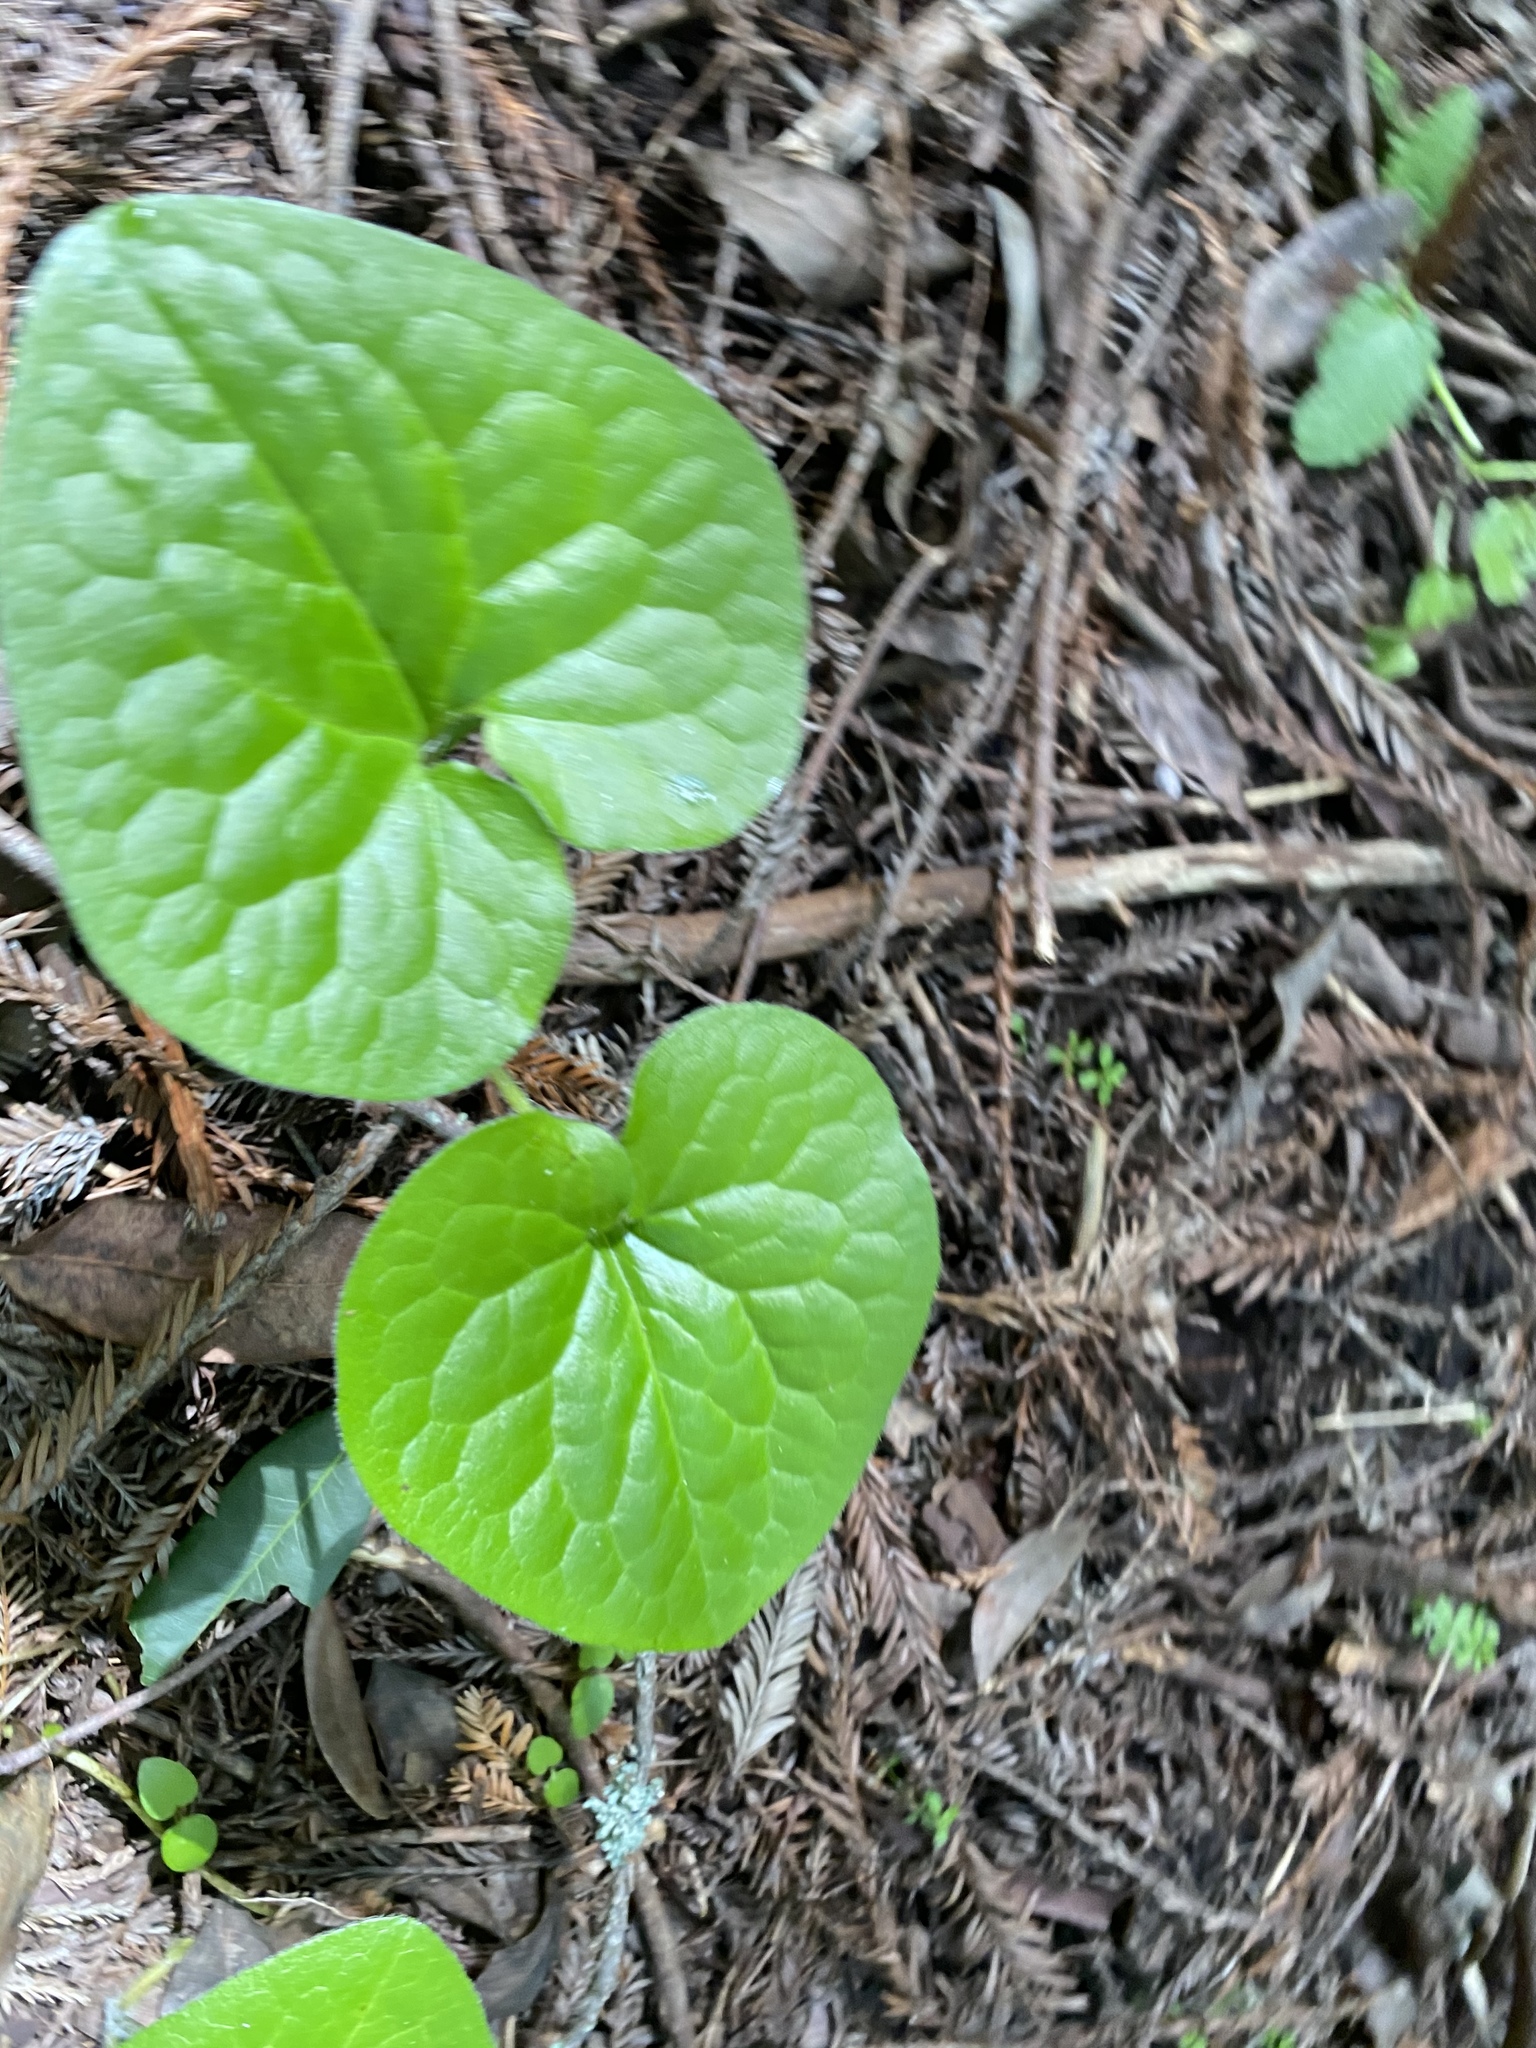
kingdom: Plantae
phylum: Tracheophyta
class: Magnoliopsida
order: Piperales
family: Aristolochiaceae
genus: Asarum
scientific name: Asarum caudatum
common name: Wild ginger
